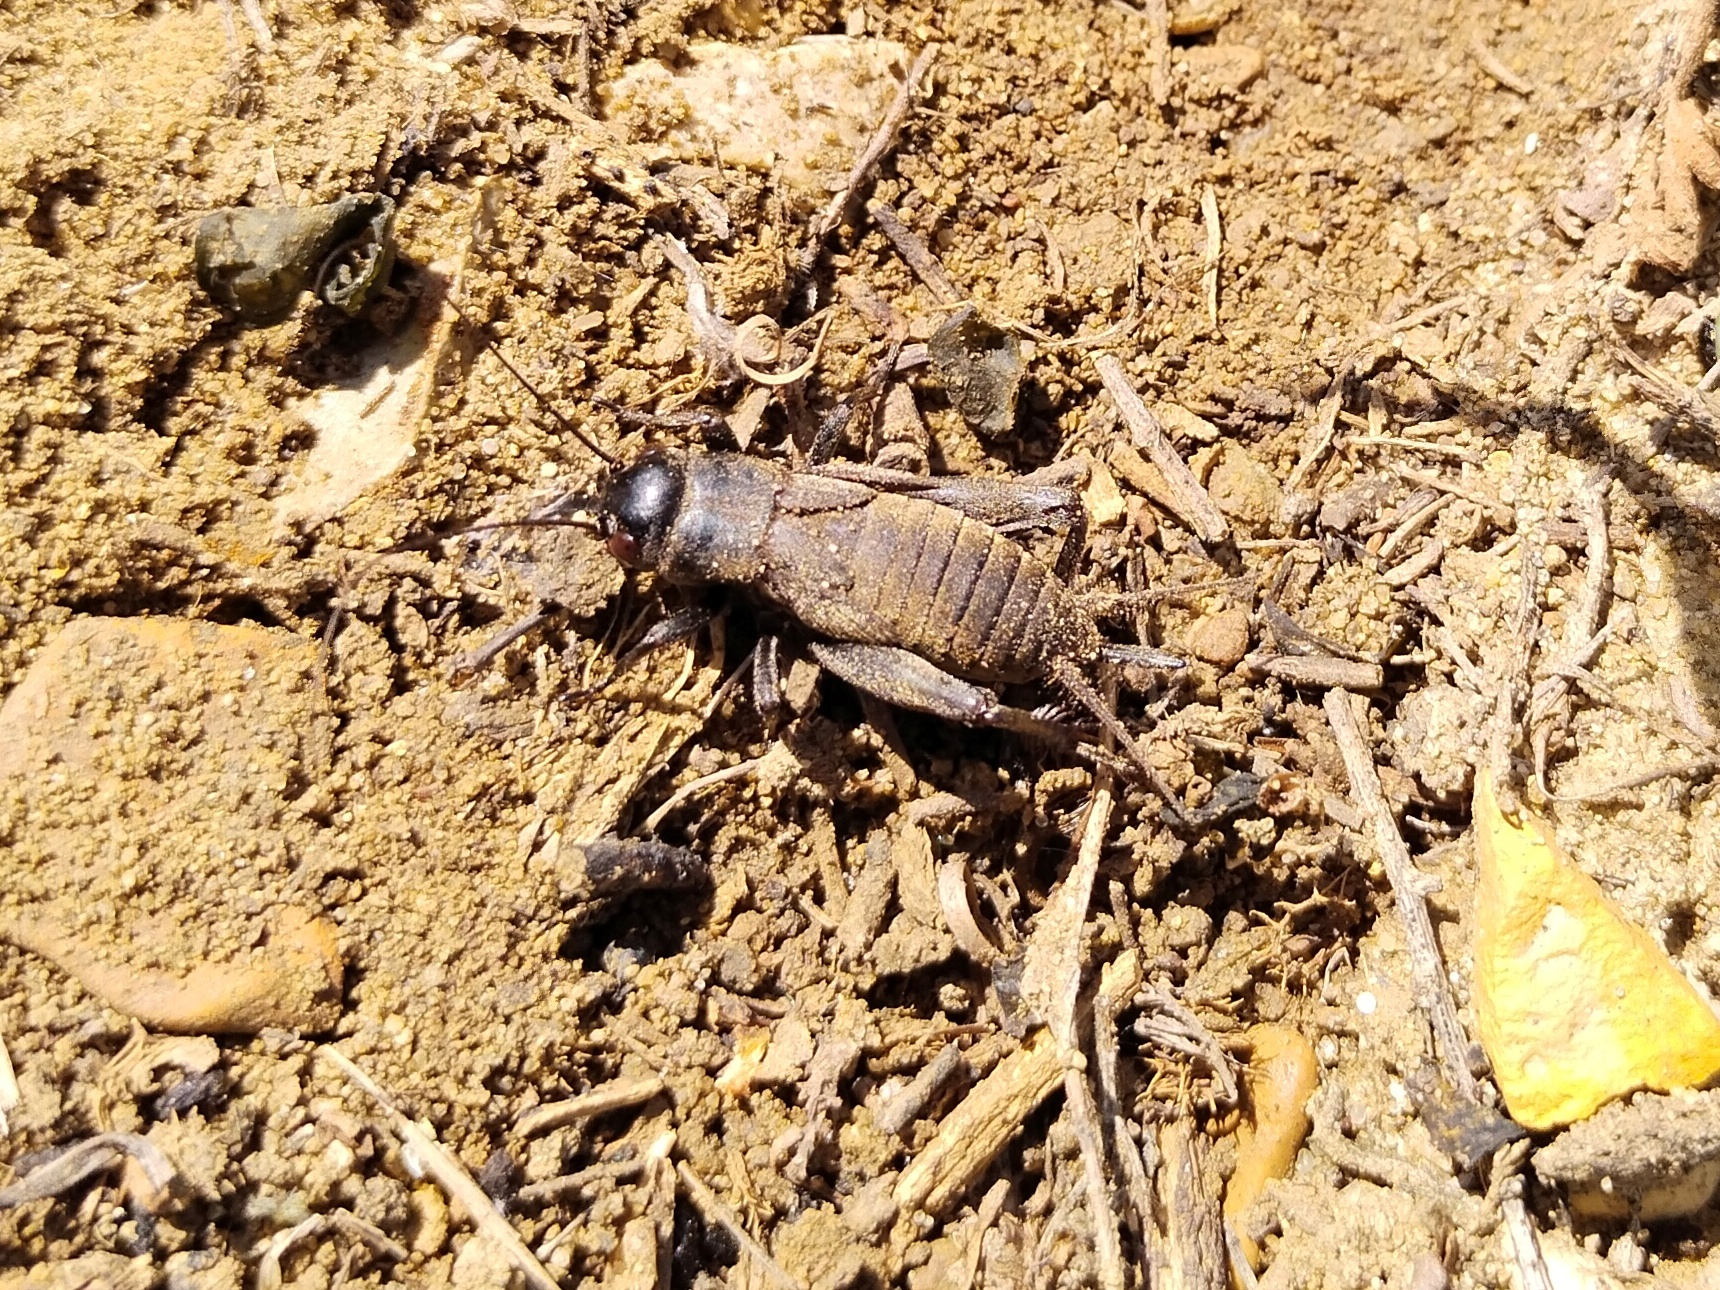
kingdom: Animalia
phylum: Arthropoda
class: Insecta
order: Orthoptera
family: Gryllidae
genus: Melanogryllus
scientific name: Melanogryllus desertus
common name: Desert cricket
